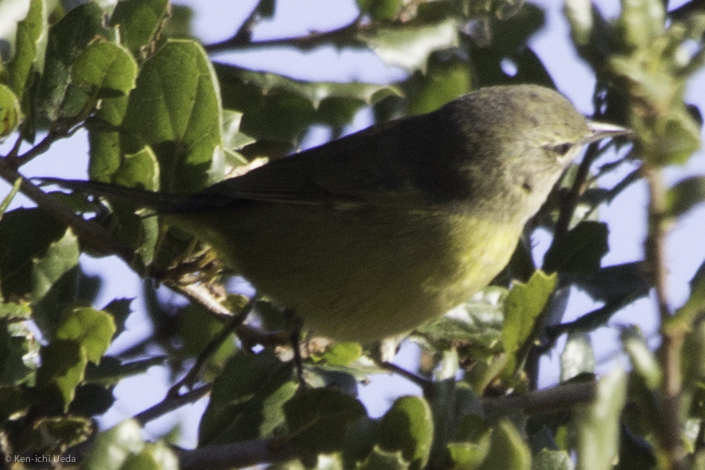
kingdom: Animalia
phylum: Chordata
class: Aves
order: Passeriformes
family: Parulidae
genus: Leiothlypis
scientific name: Leiothlypis celata
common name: Orange-crowned warbler
